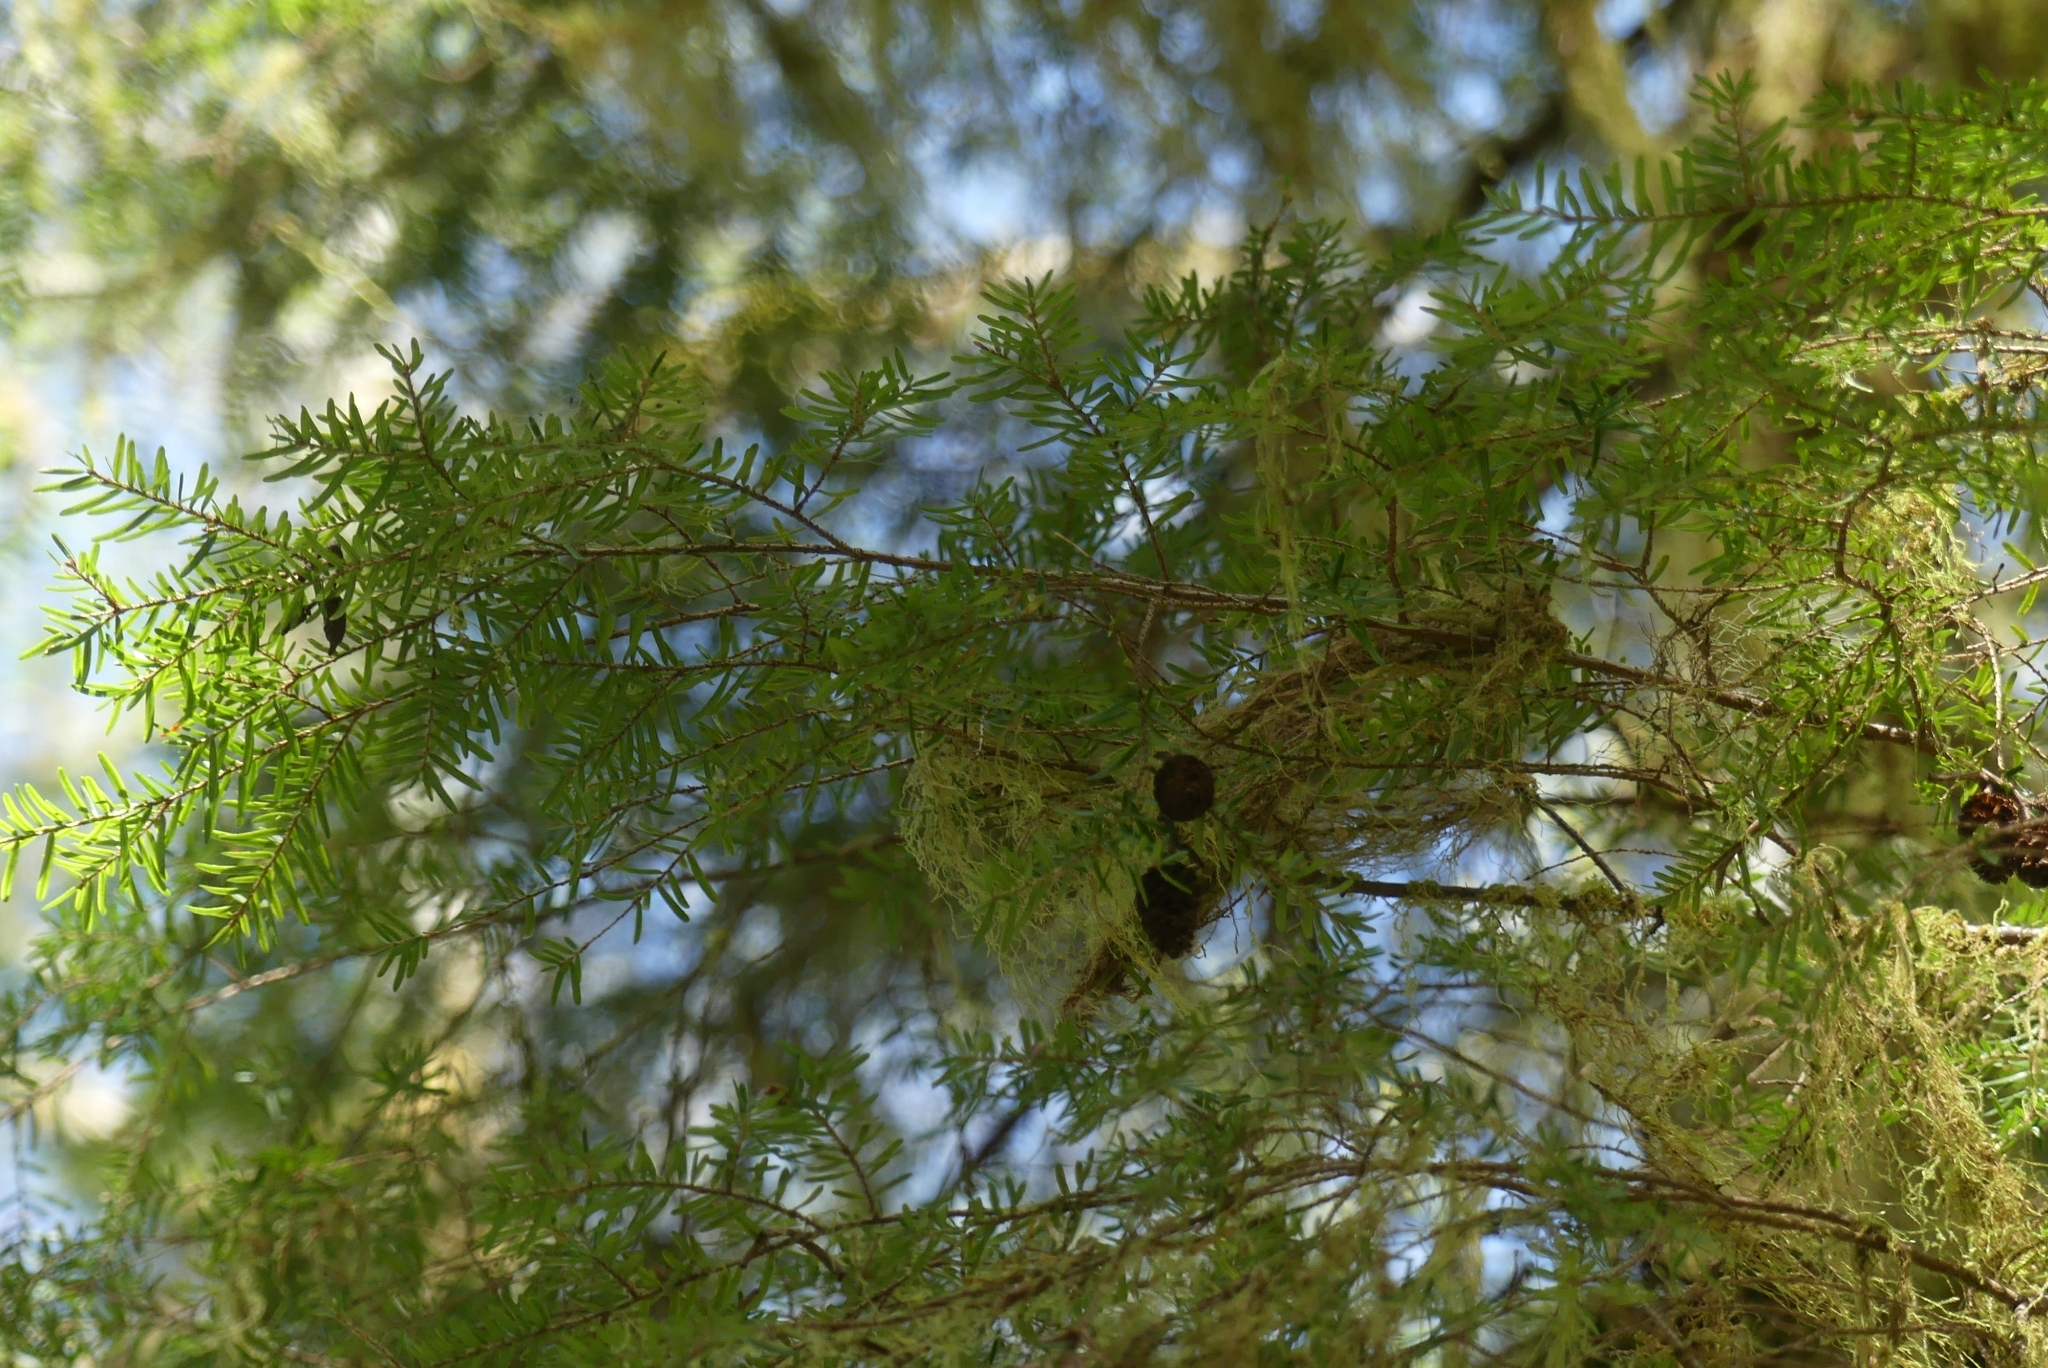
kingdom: Plantae
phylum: Tracheophyta
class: Pinopsida
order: Pinales
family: Pinaceae
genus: Tsuga
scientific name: Tsuga heterophylla
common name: Western hemlock
